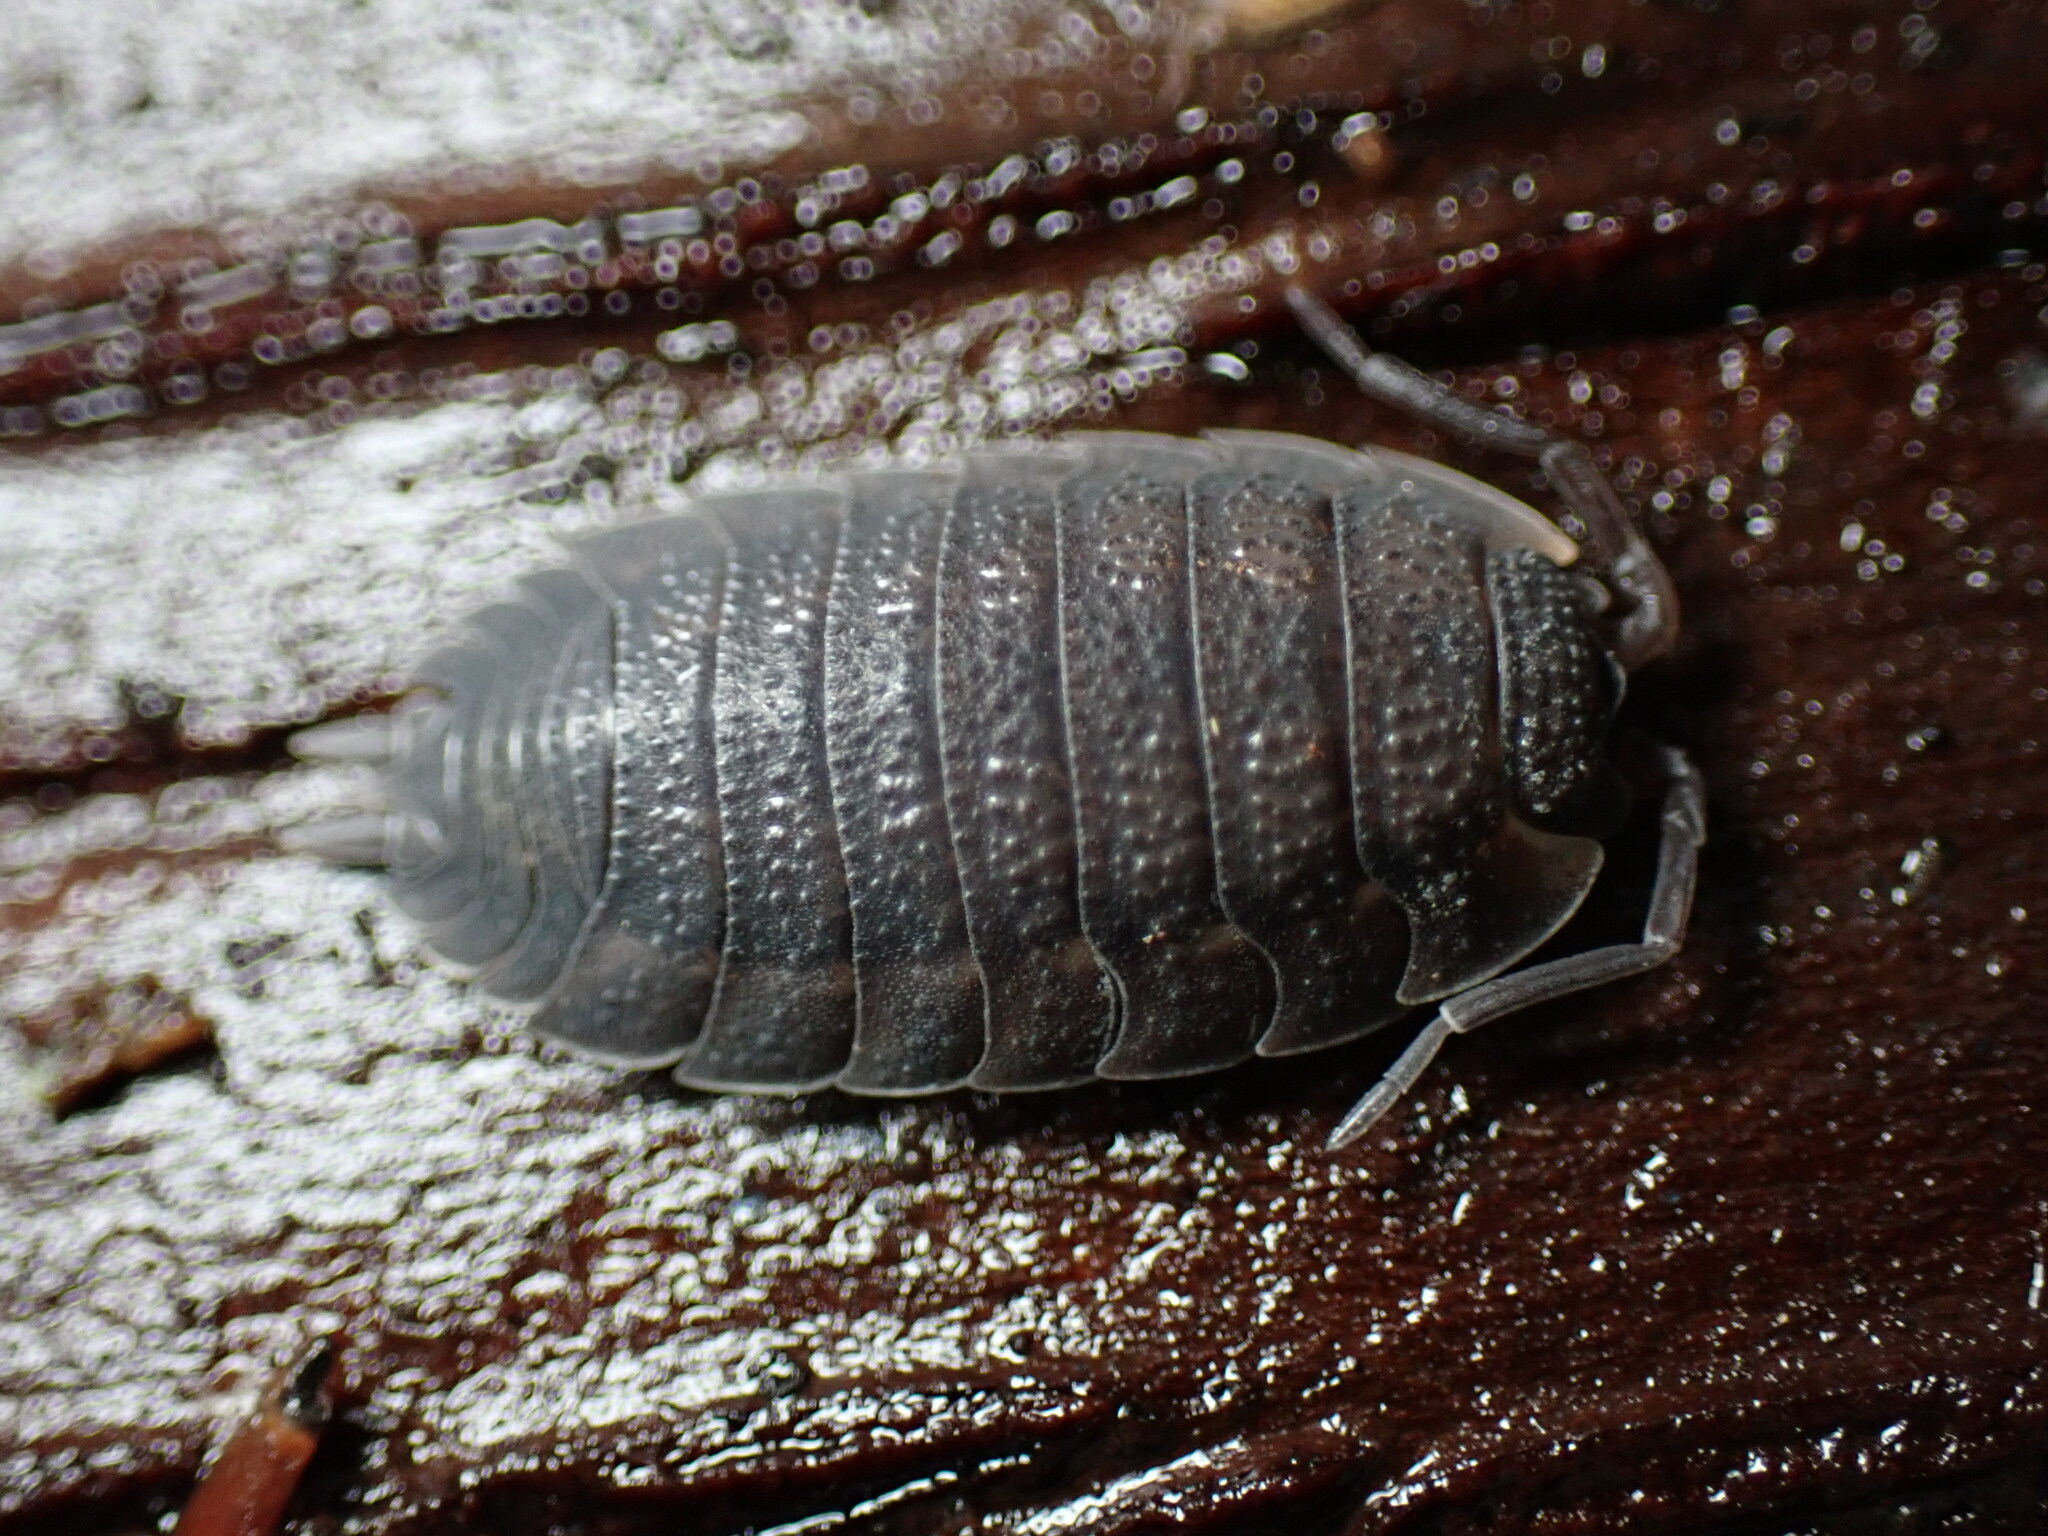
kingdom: Animalia
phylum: Arthropoda
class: Malacostraca
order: Isopoda
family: Porcellionidae
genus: Porcellio
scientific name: Porcellio scaber
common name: Common rough woodlouse
